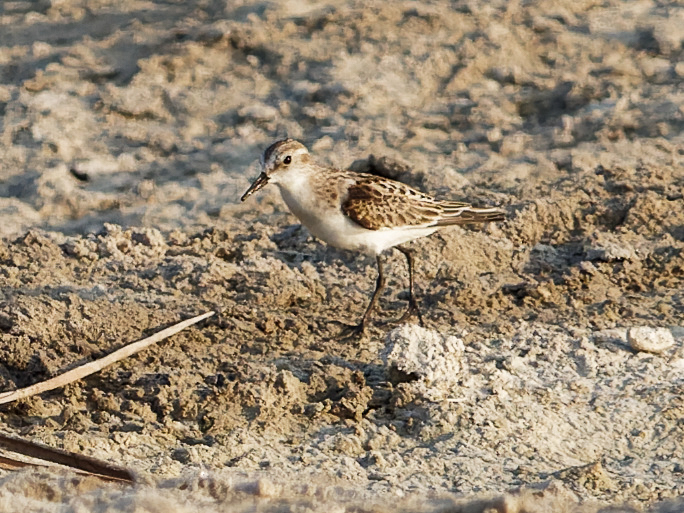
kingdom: Animalia
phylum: Chordata
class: Aves
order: Charadriiformes
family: Scolopacidae
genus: Calidris
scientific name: Calidris minuta
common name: Little stint
